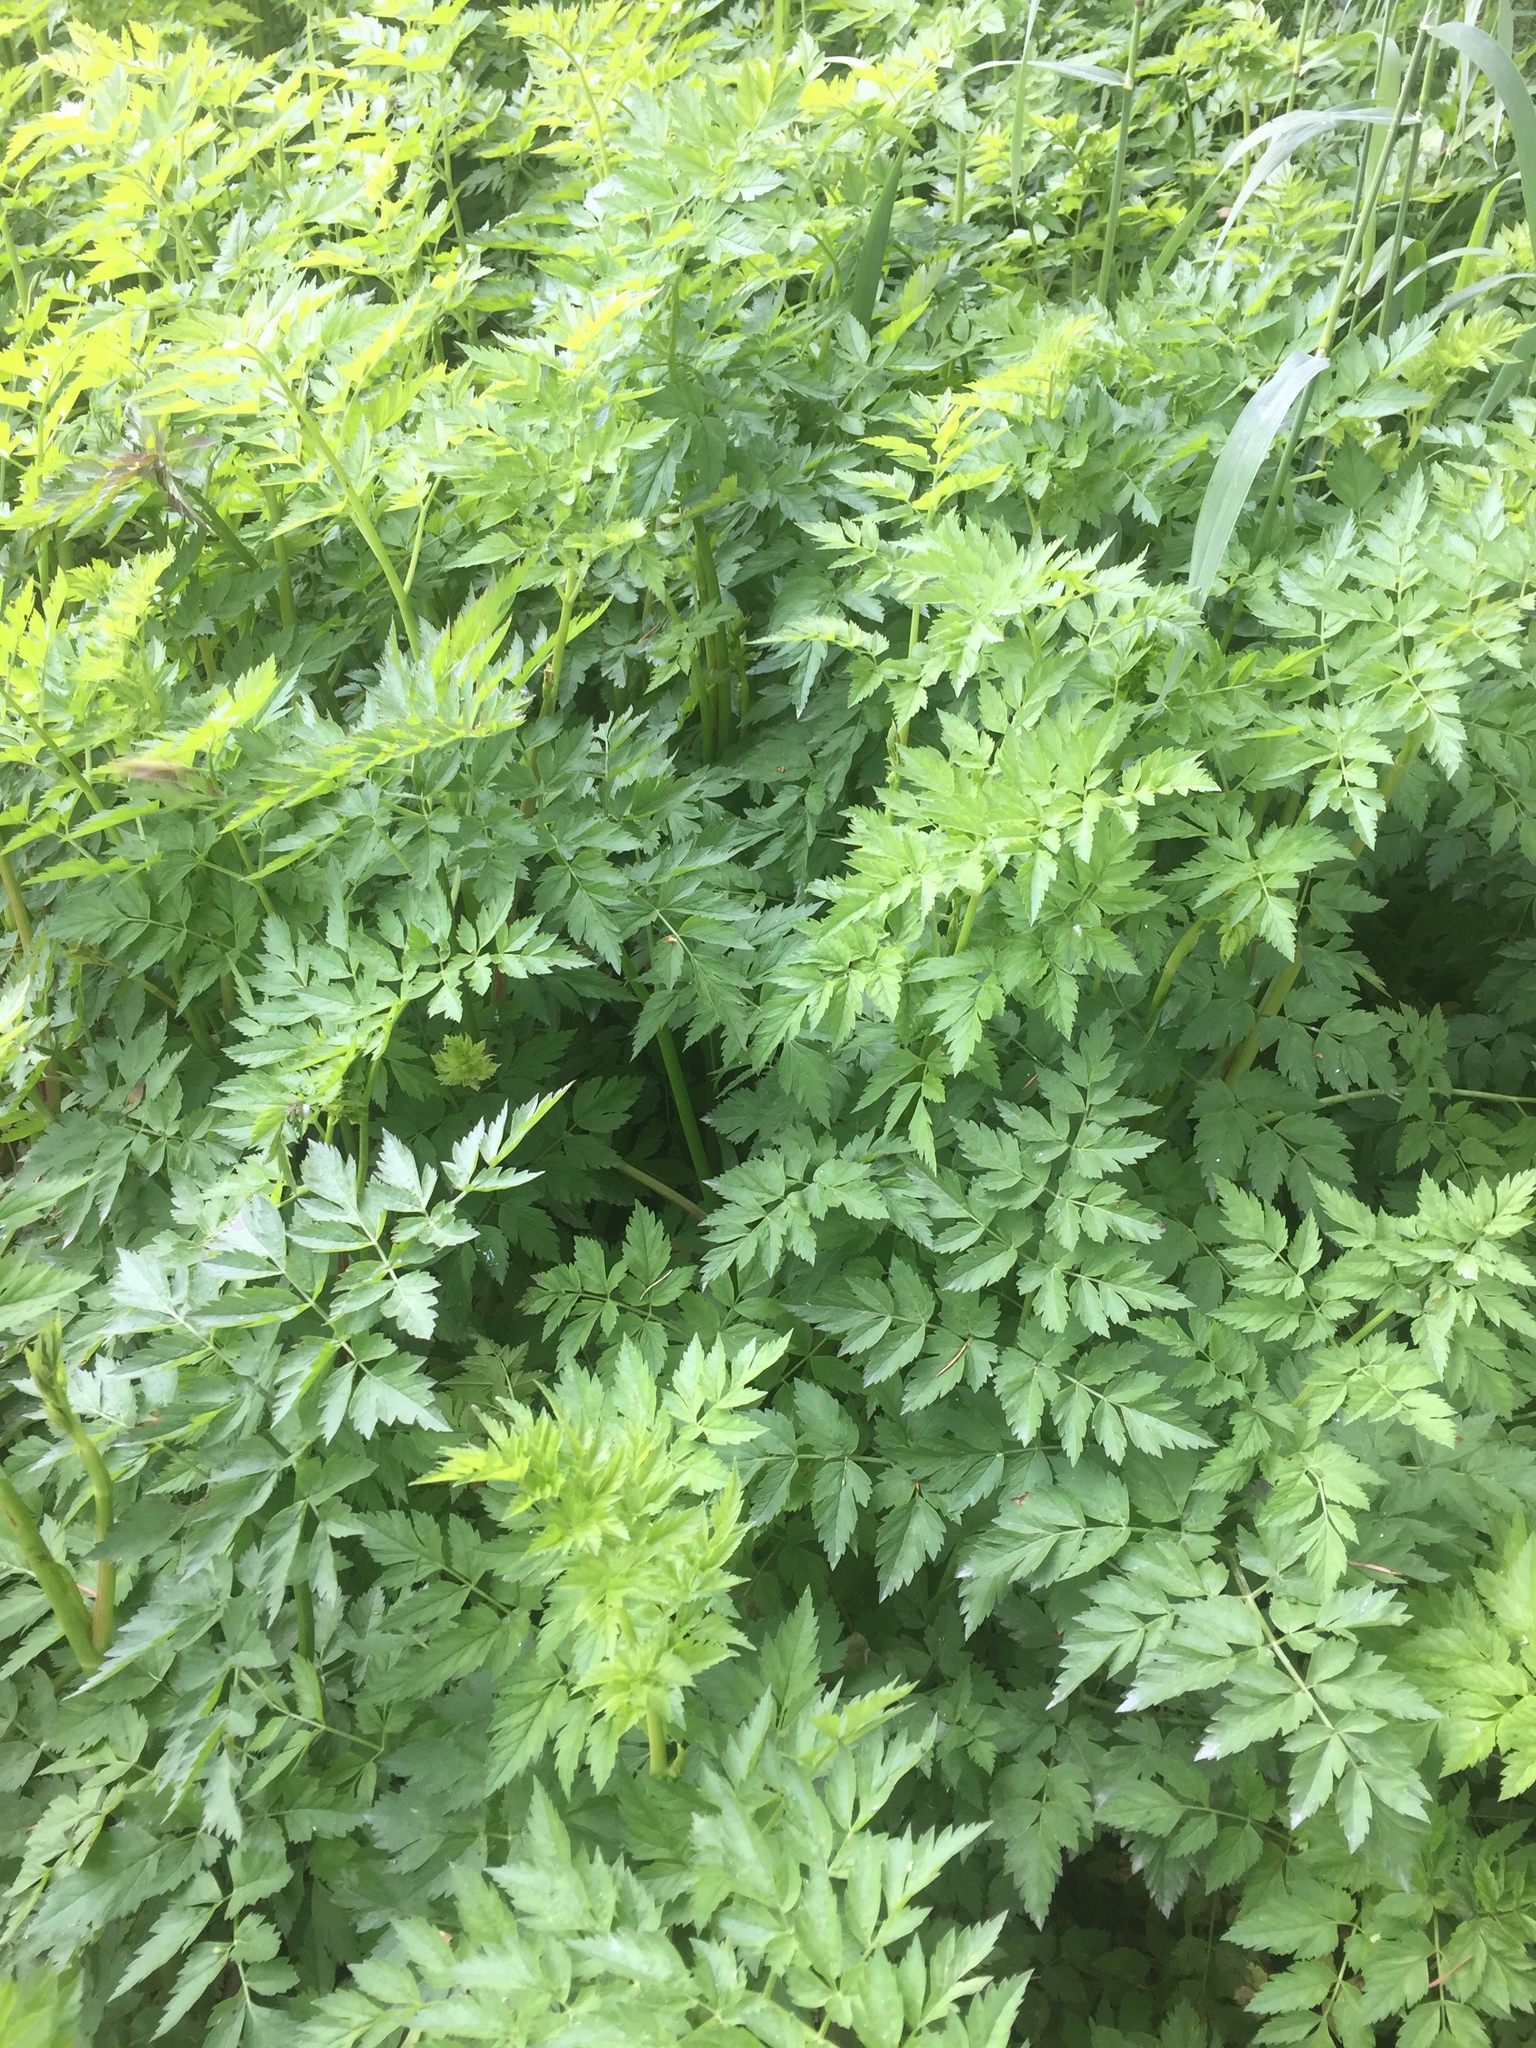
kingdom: Plantae
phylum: Tracheophyta
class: Magnoliopsida
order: Apiales
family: Apiaceae
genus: Oenanthe
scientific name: Oenanthe sarmentosa
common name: American water-parsley
